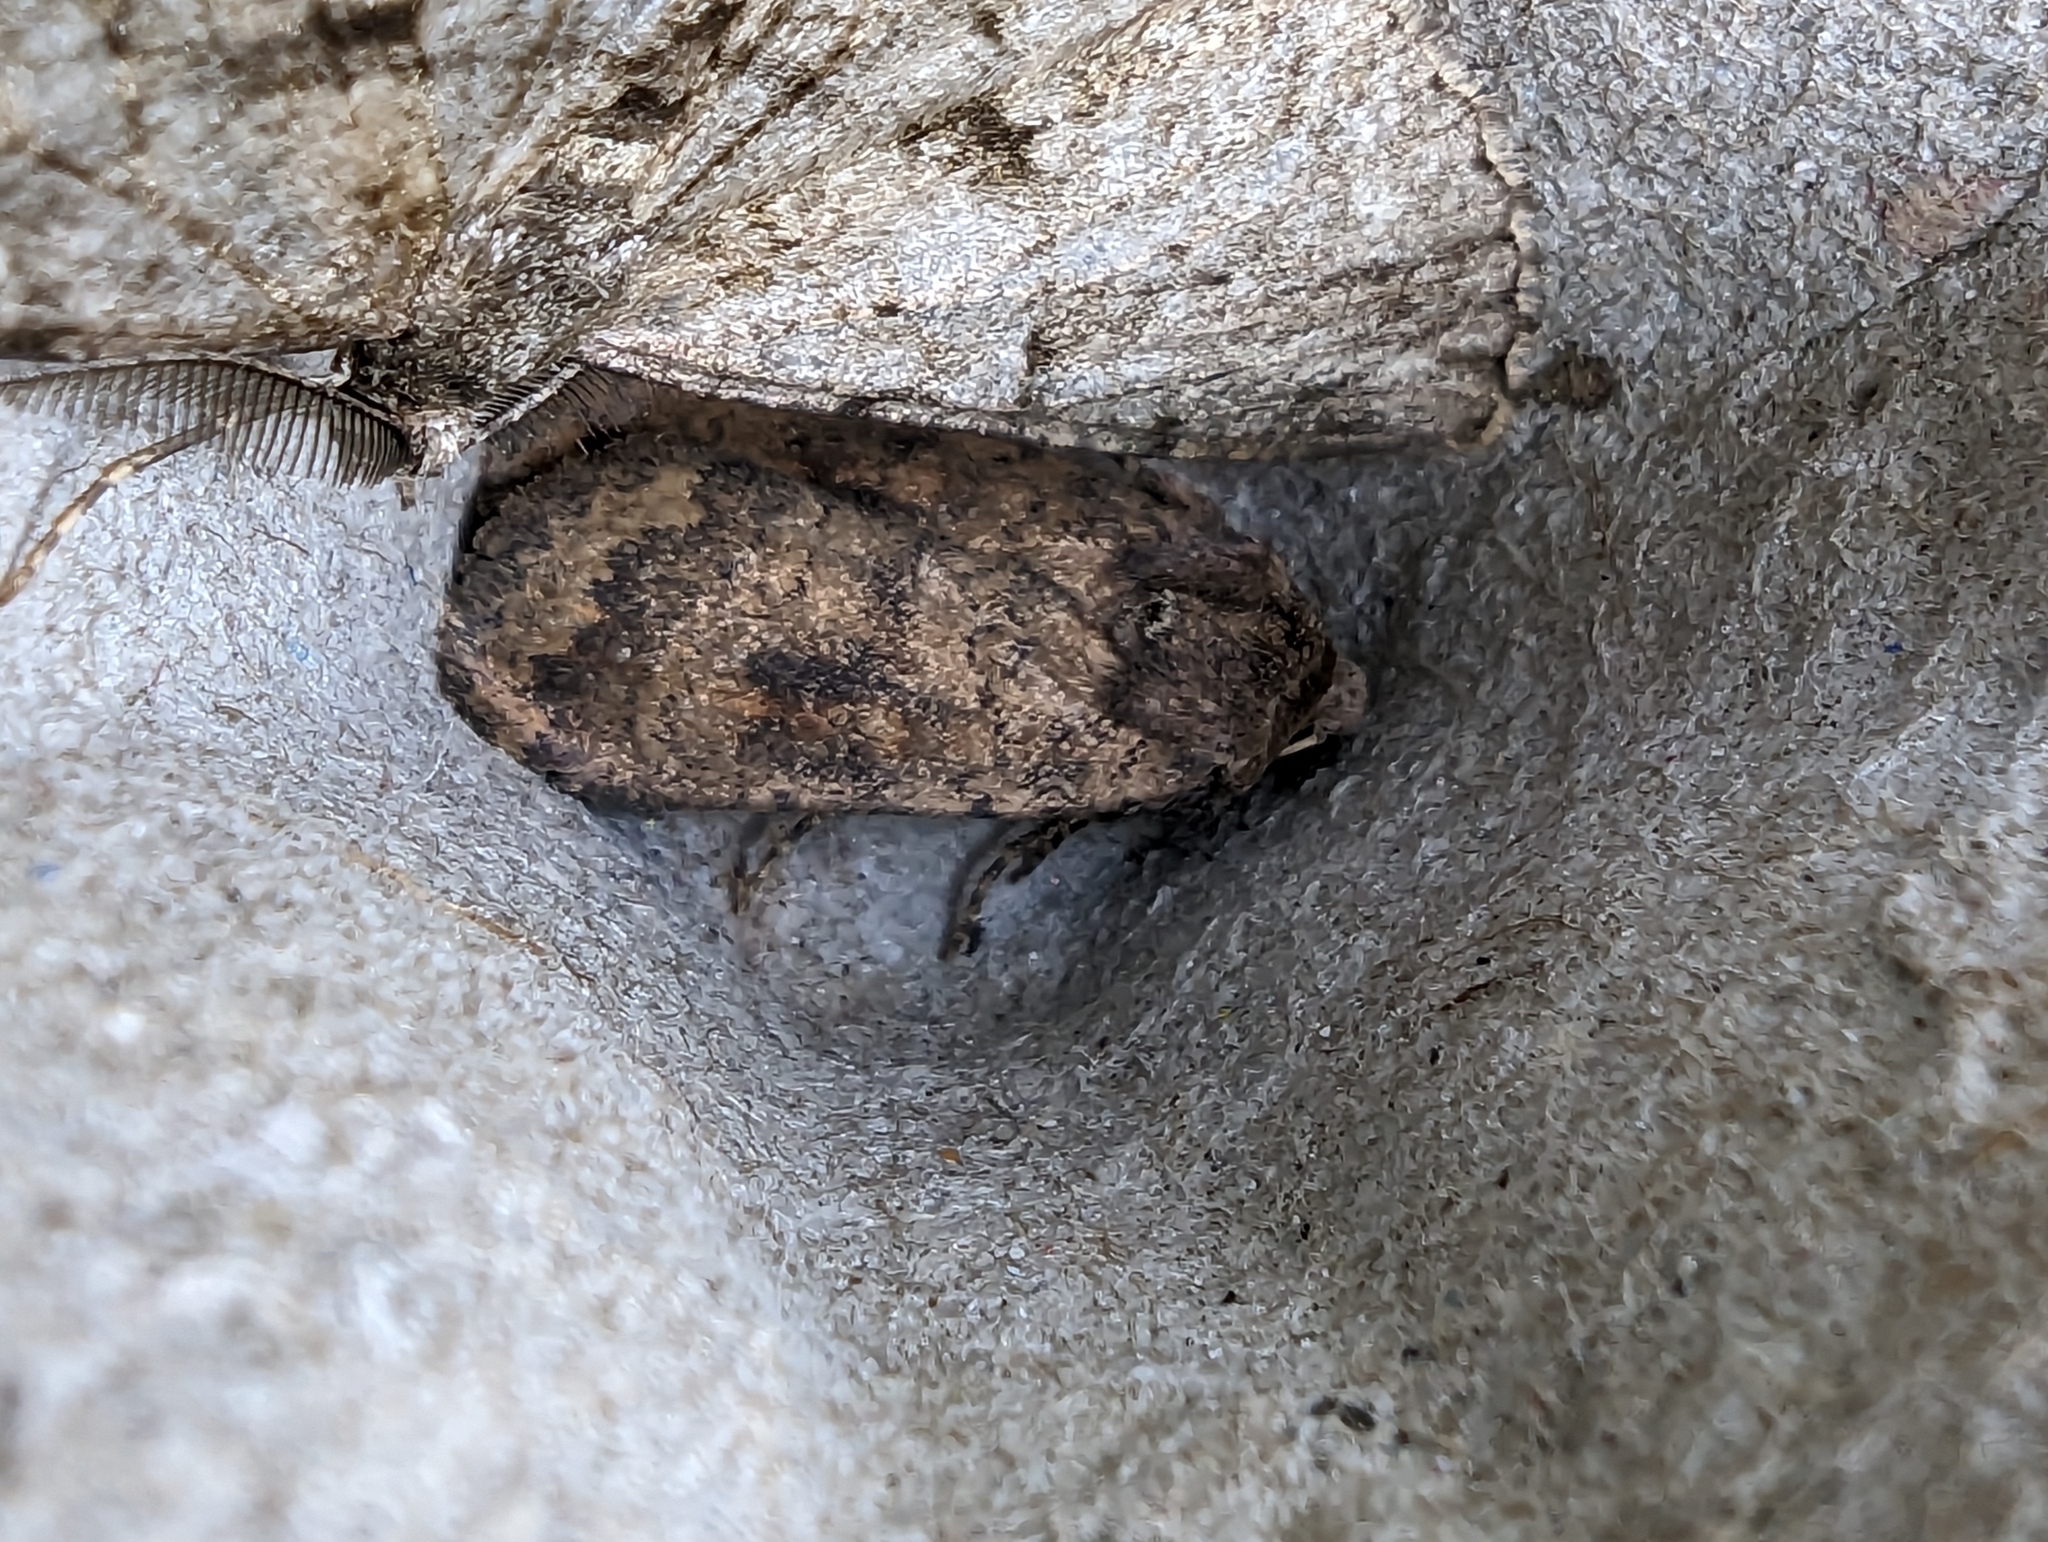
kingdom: Animalia
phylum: Arthropoda
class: Insecta
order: Lepidoptera
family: Noctuidae
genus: Caradrina
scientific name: Caradrina morpheus
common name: Mottled rustic
